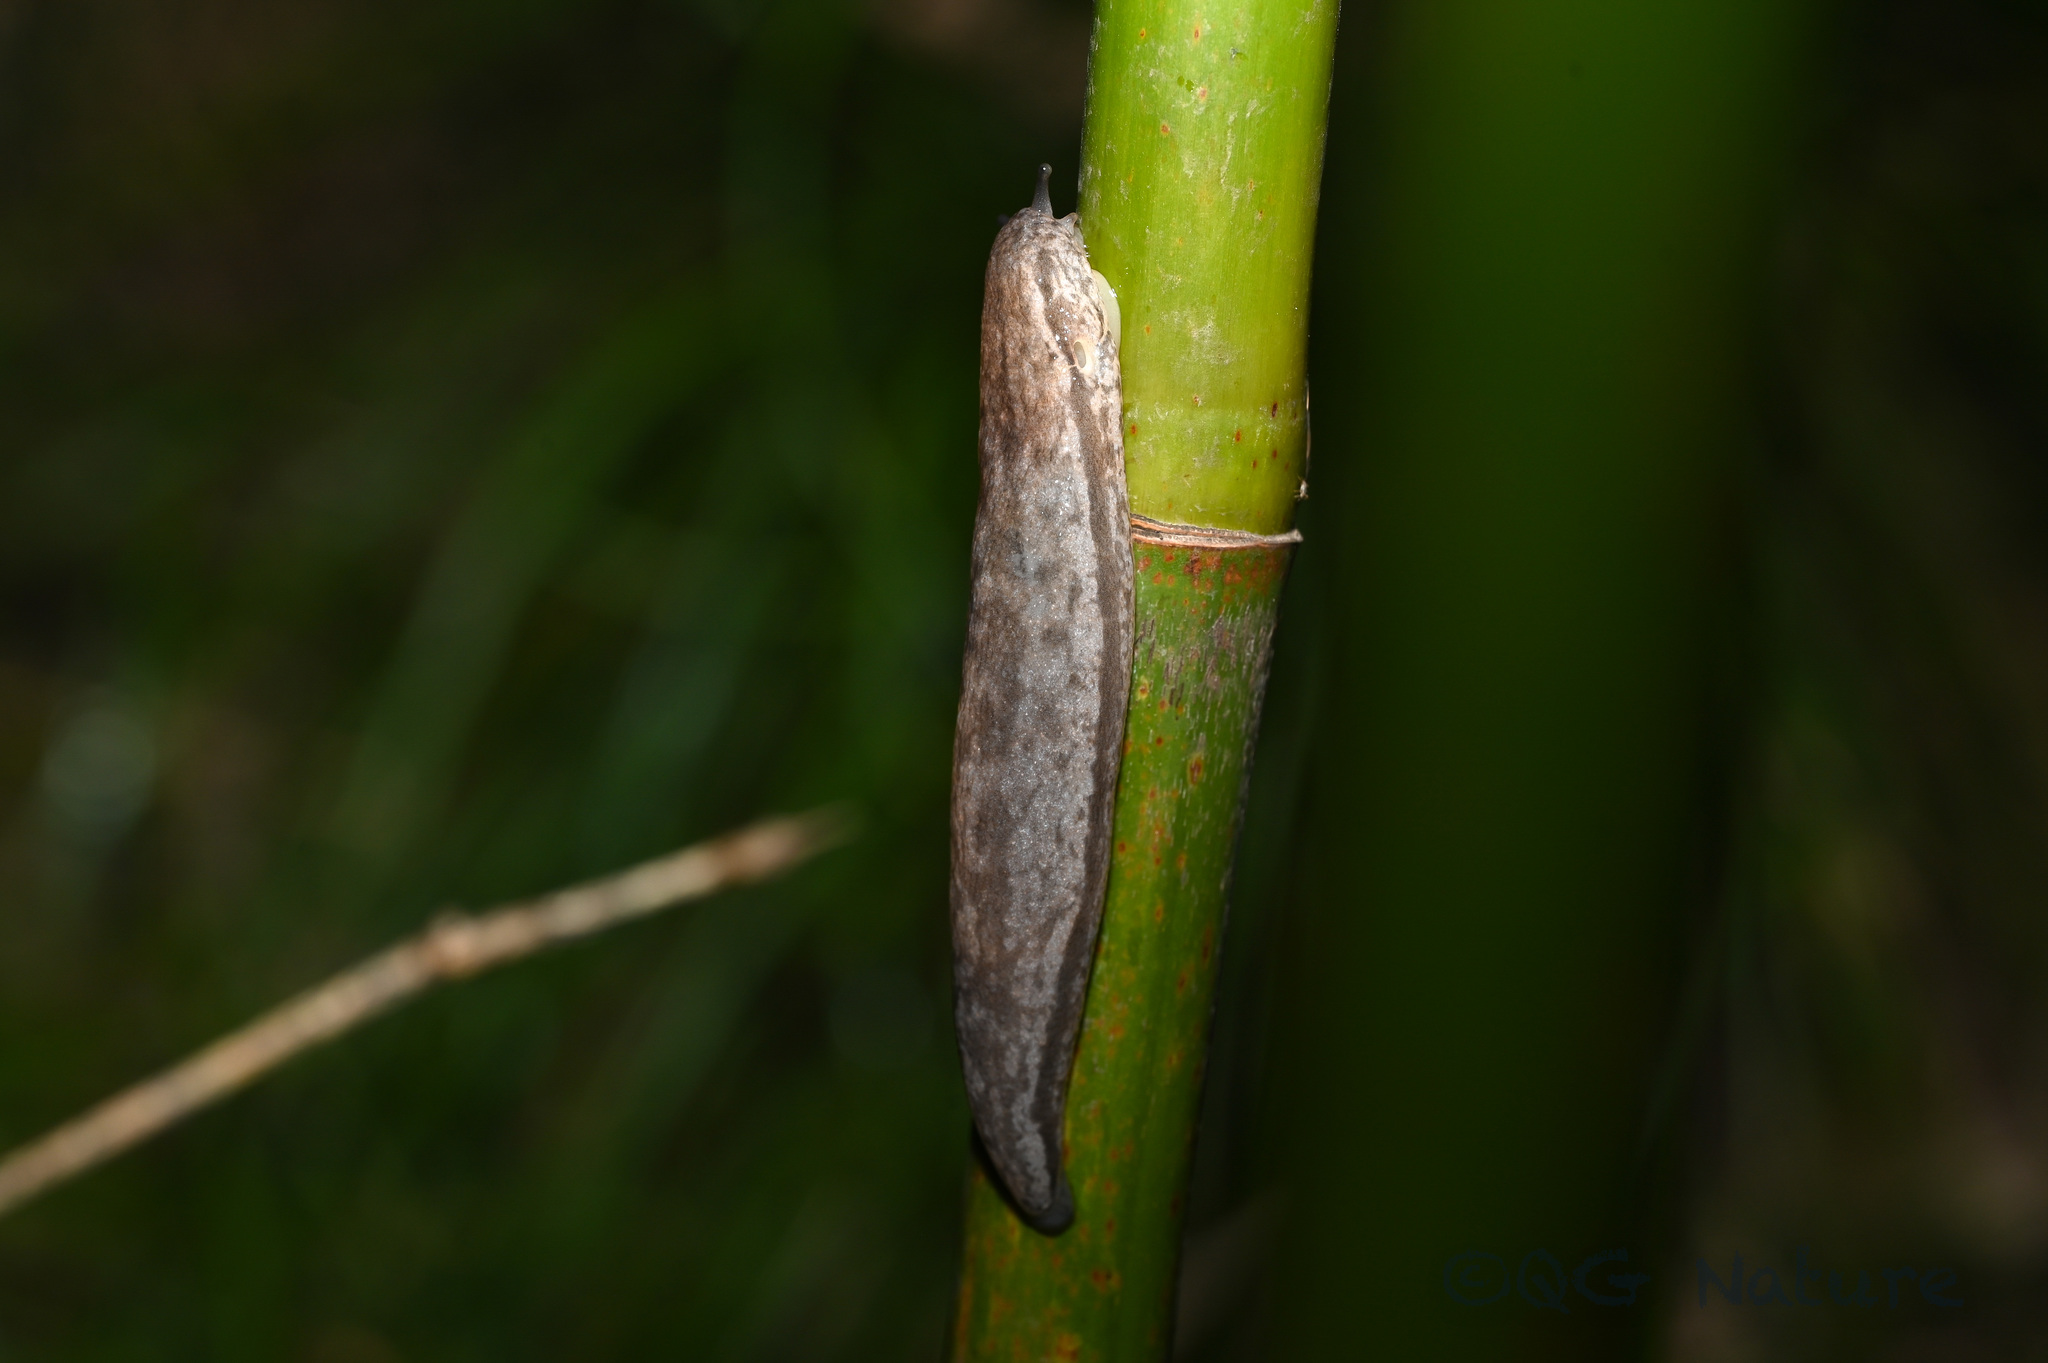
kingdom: Animalia
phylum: Mollusca
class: Gastropoda
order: Stylommatophora
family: Philomycidae
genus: Meghimatium
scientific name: Meghimatium bilineatum
